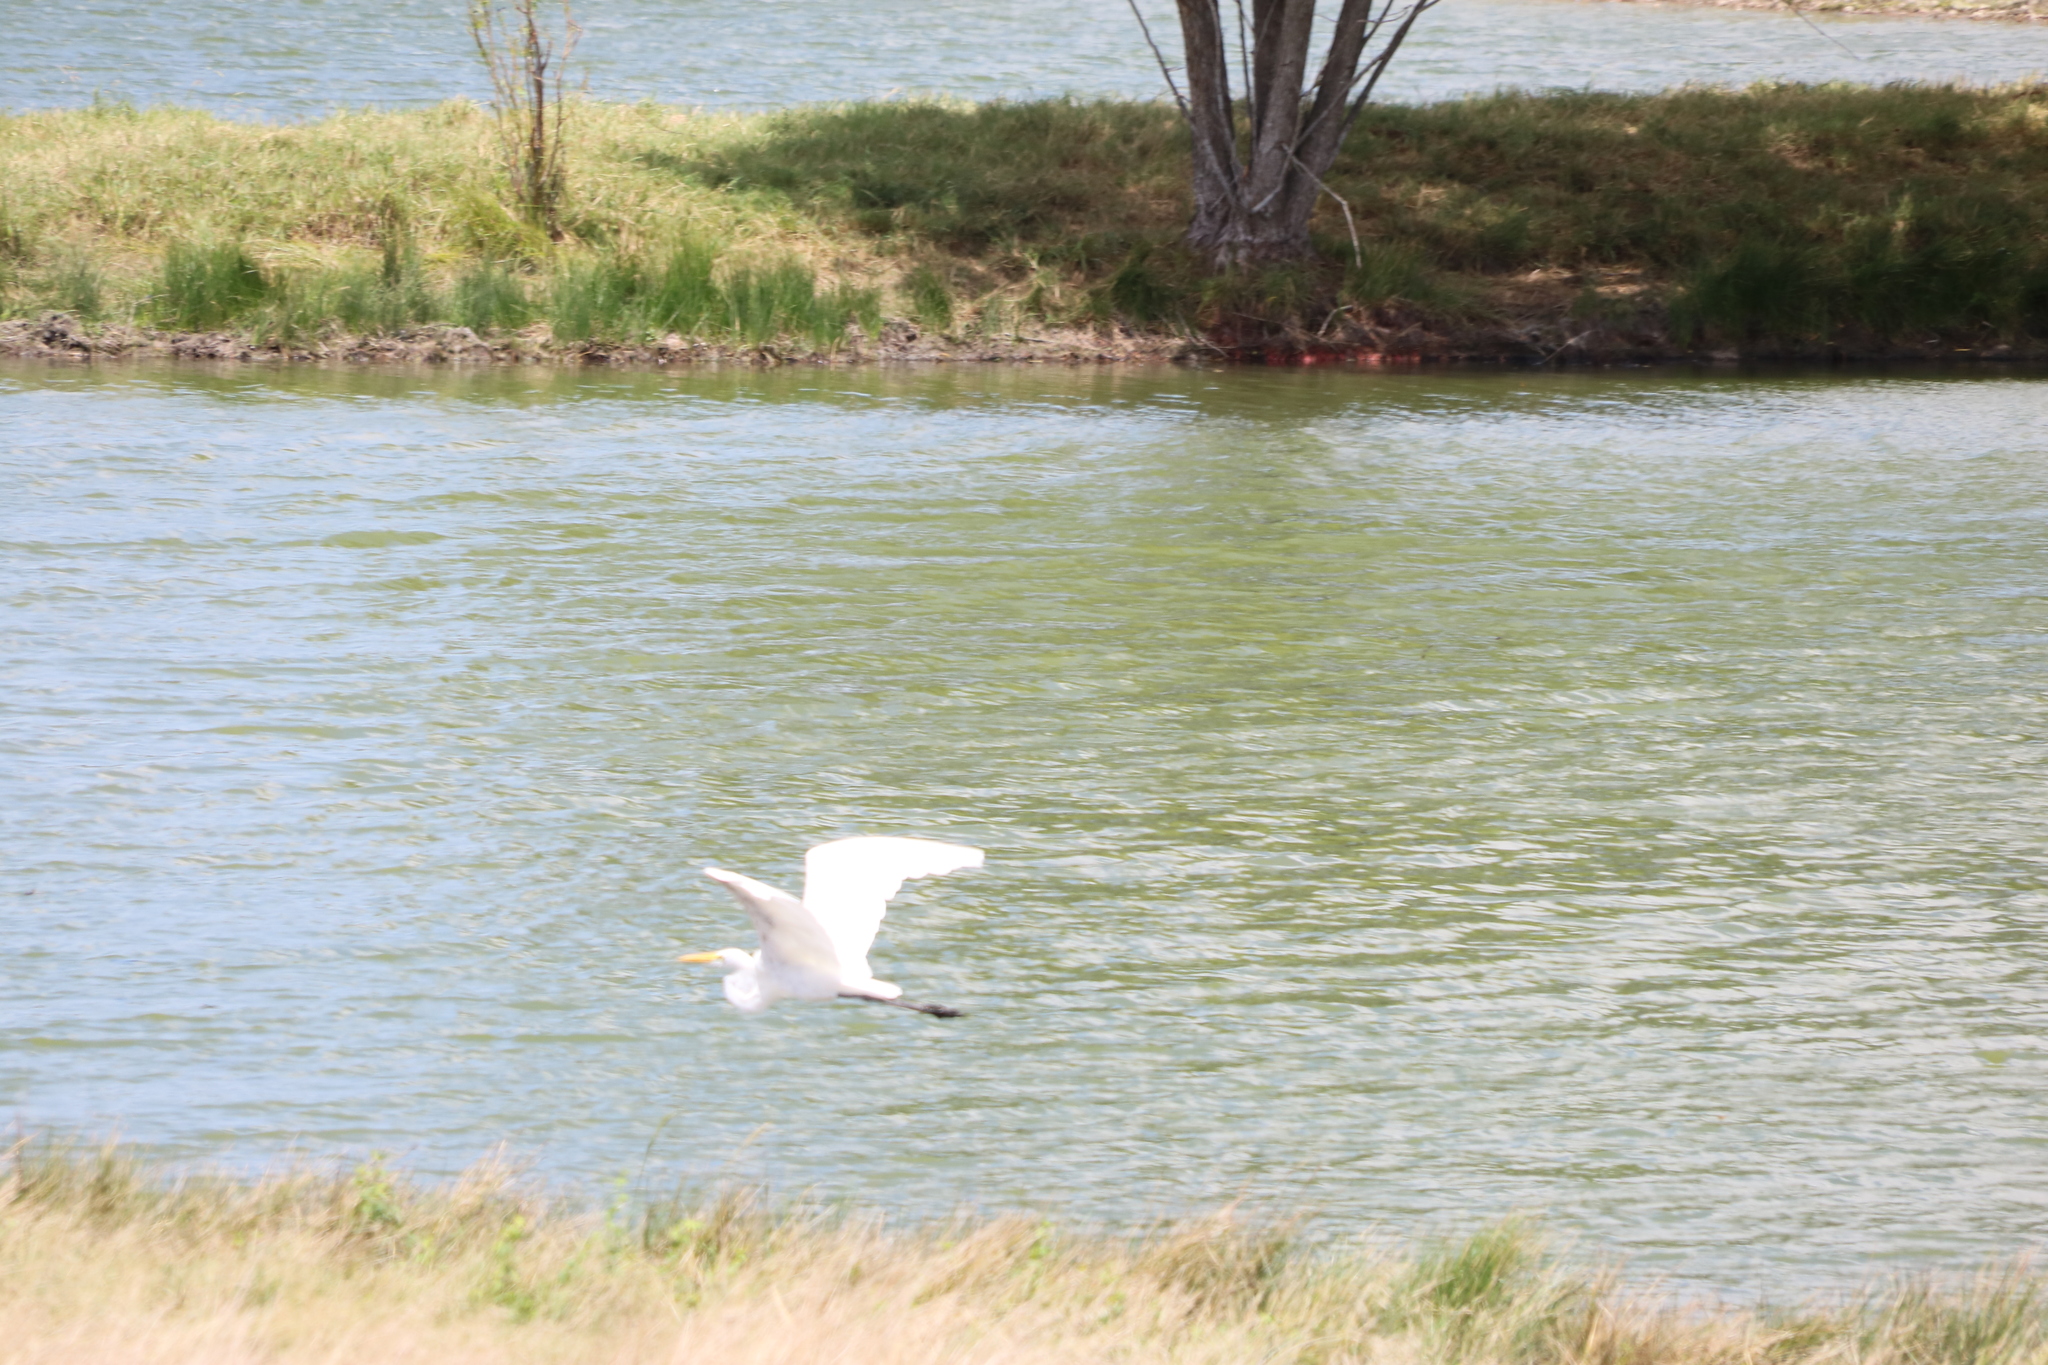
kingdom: Animalia
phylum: Chordata
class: Aves
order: Pelecaniformes
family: Ardeidae
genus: Ardea
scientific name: Ardea alba
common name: Great egret
